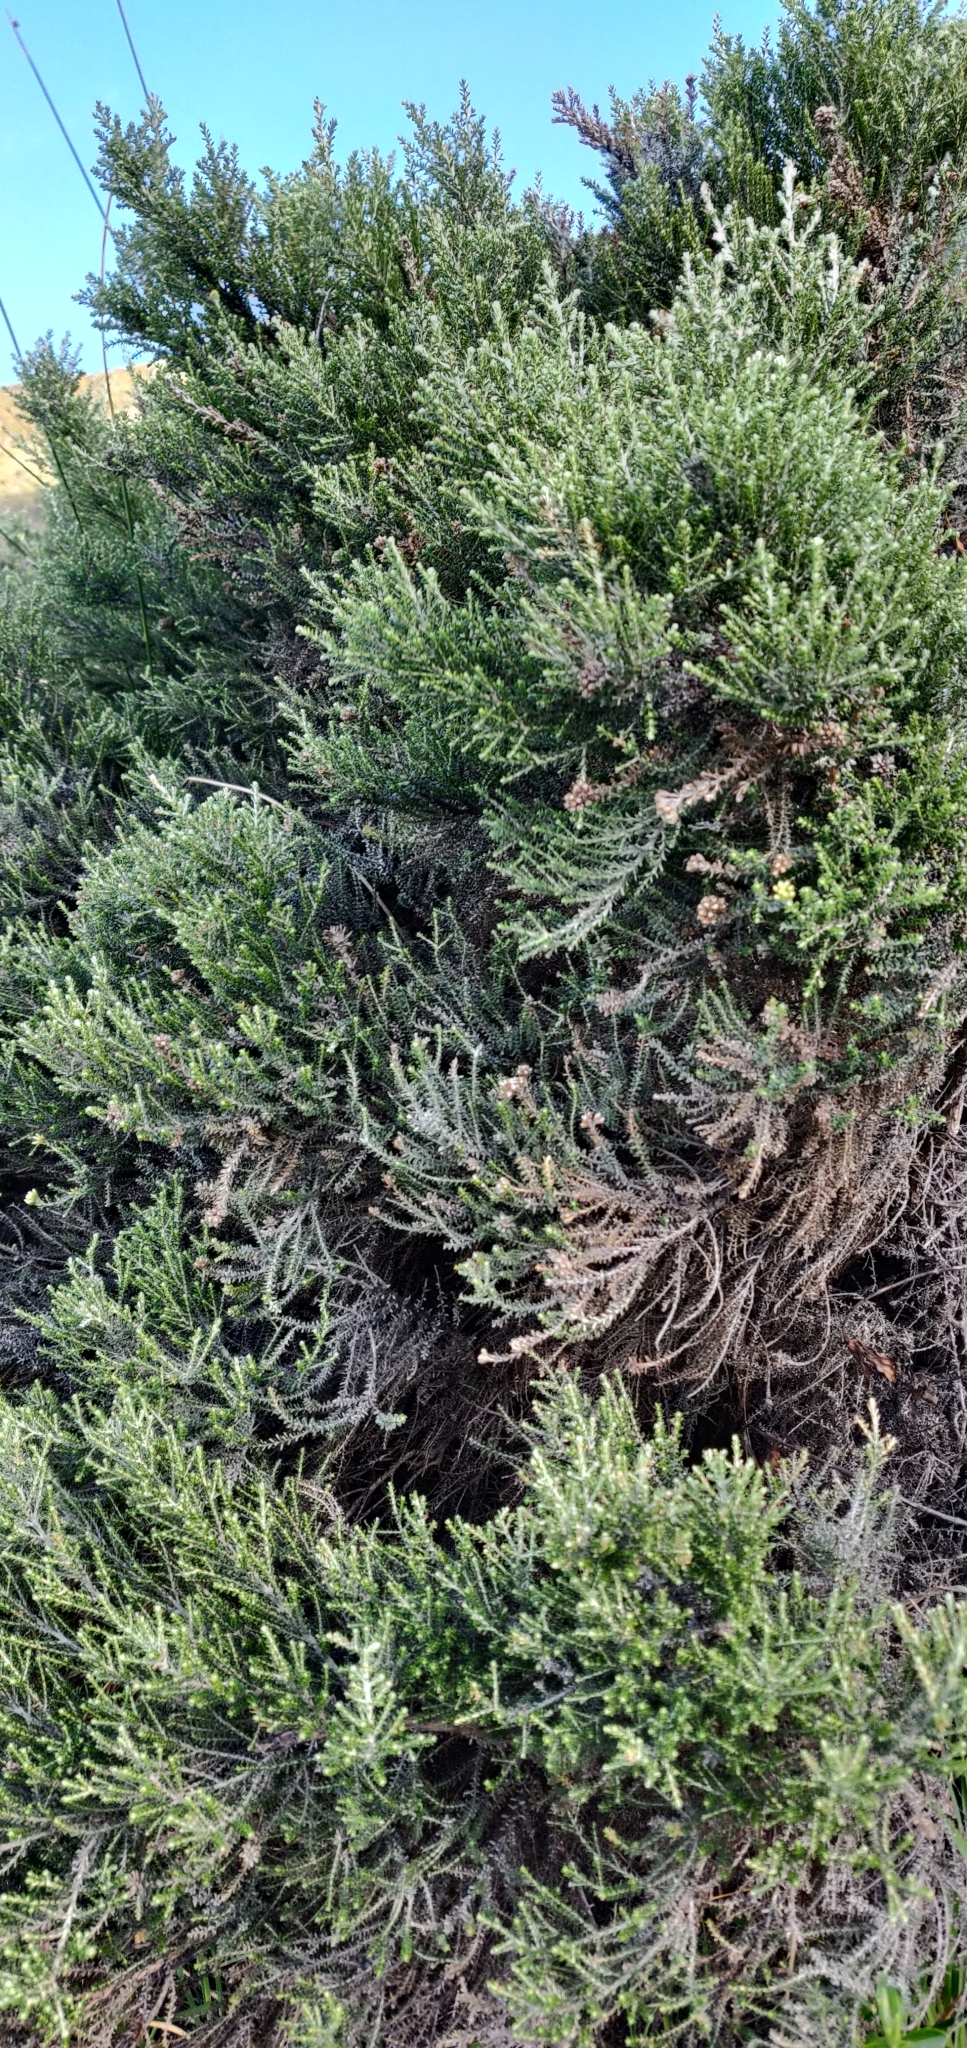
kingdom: Plantae
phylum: Tracheophyta
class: Magnoliopsida
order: Asterales
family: Asteraceae
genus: Ozothamnus
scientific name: Ozothamnus leptophyllus
